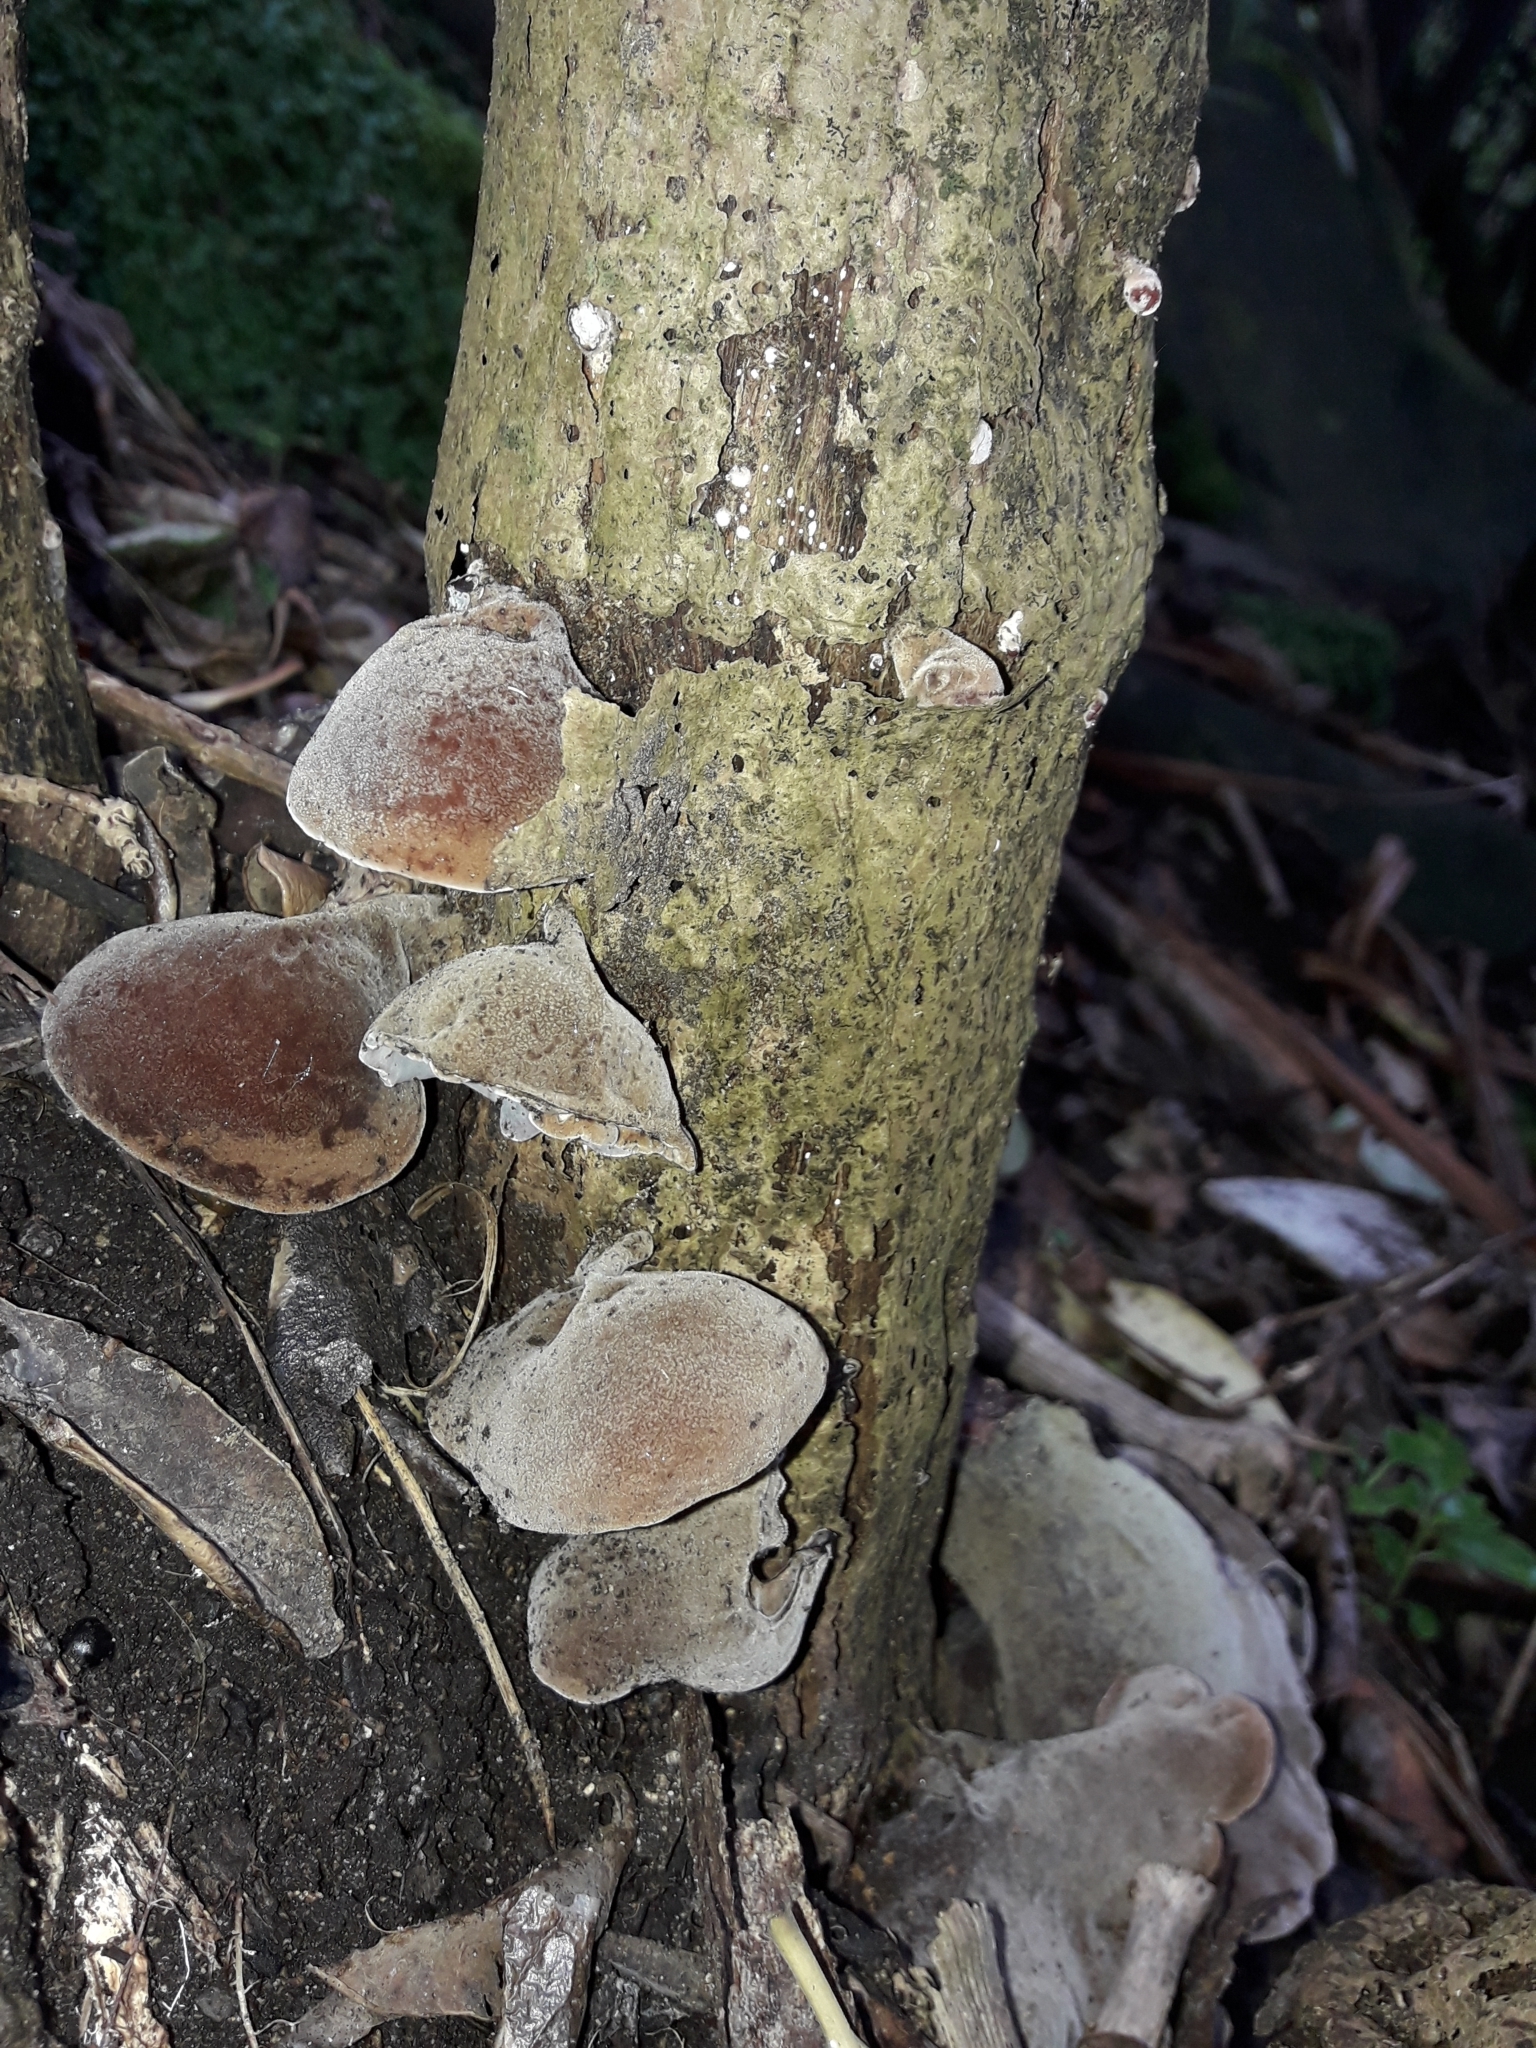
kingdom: Fungi
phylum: Basidiomycota
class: Agaricomycetes
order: Auriculariales
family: Auriculariaceae
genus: Auricularia
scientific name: Auricularia cornea
